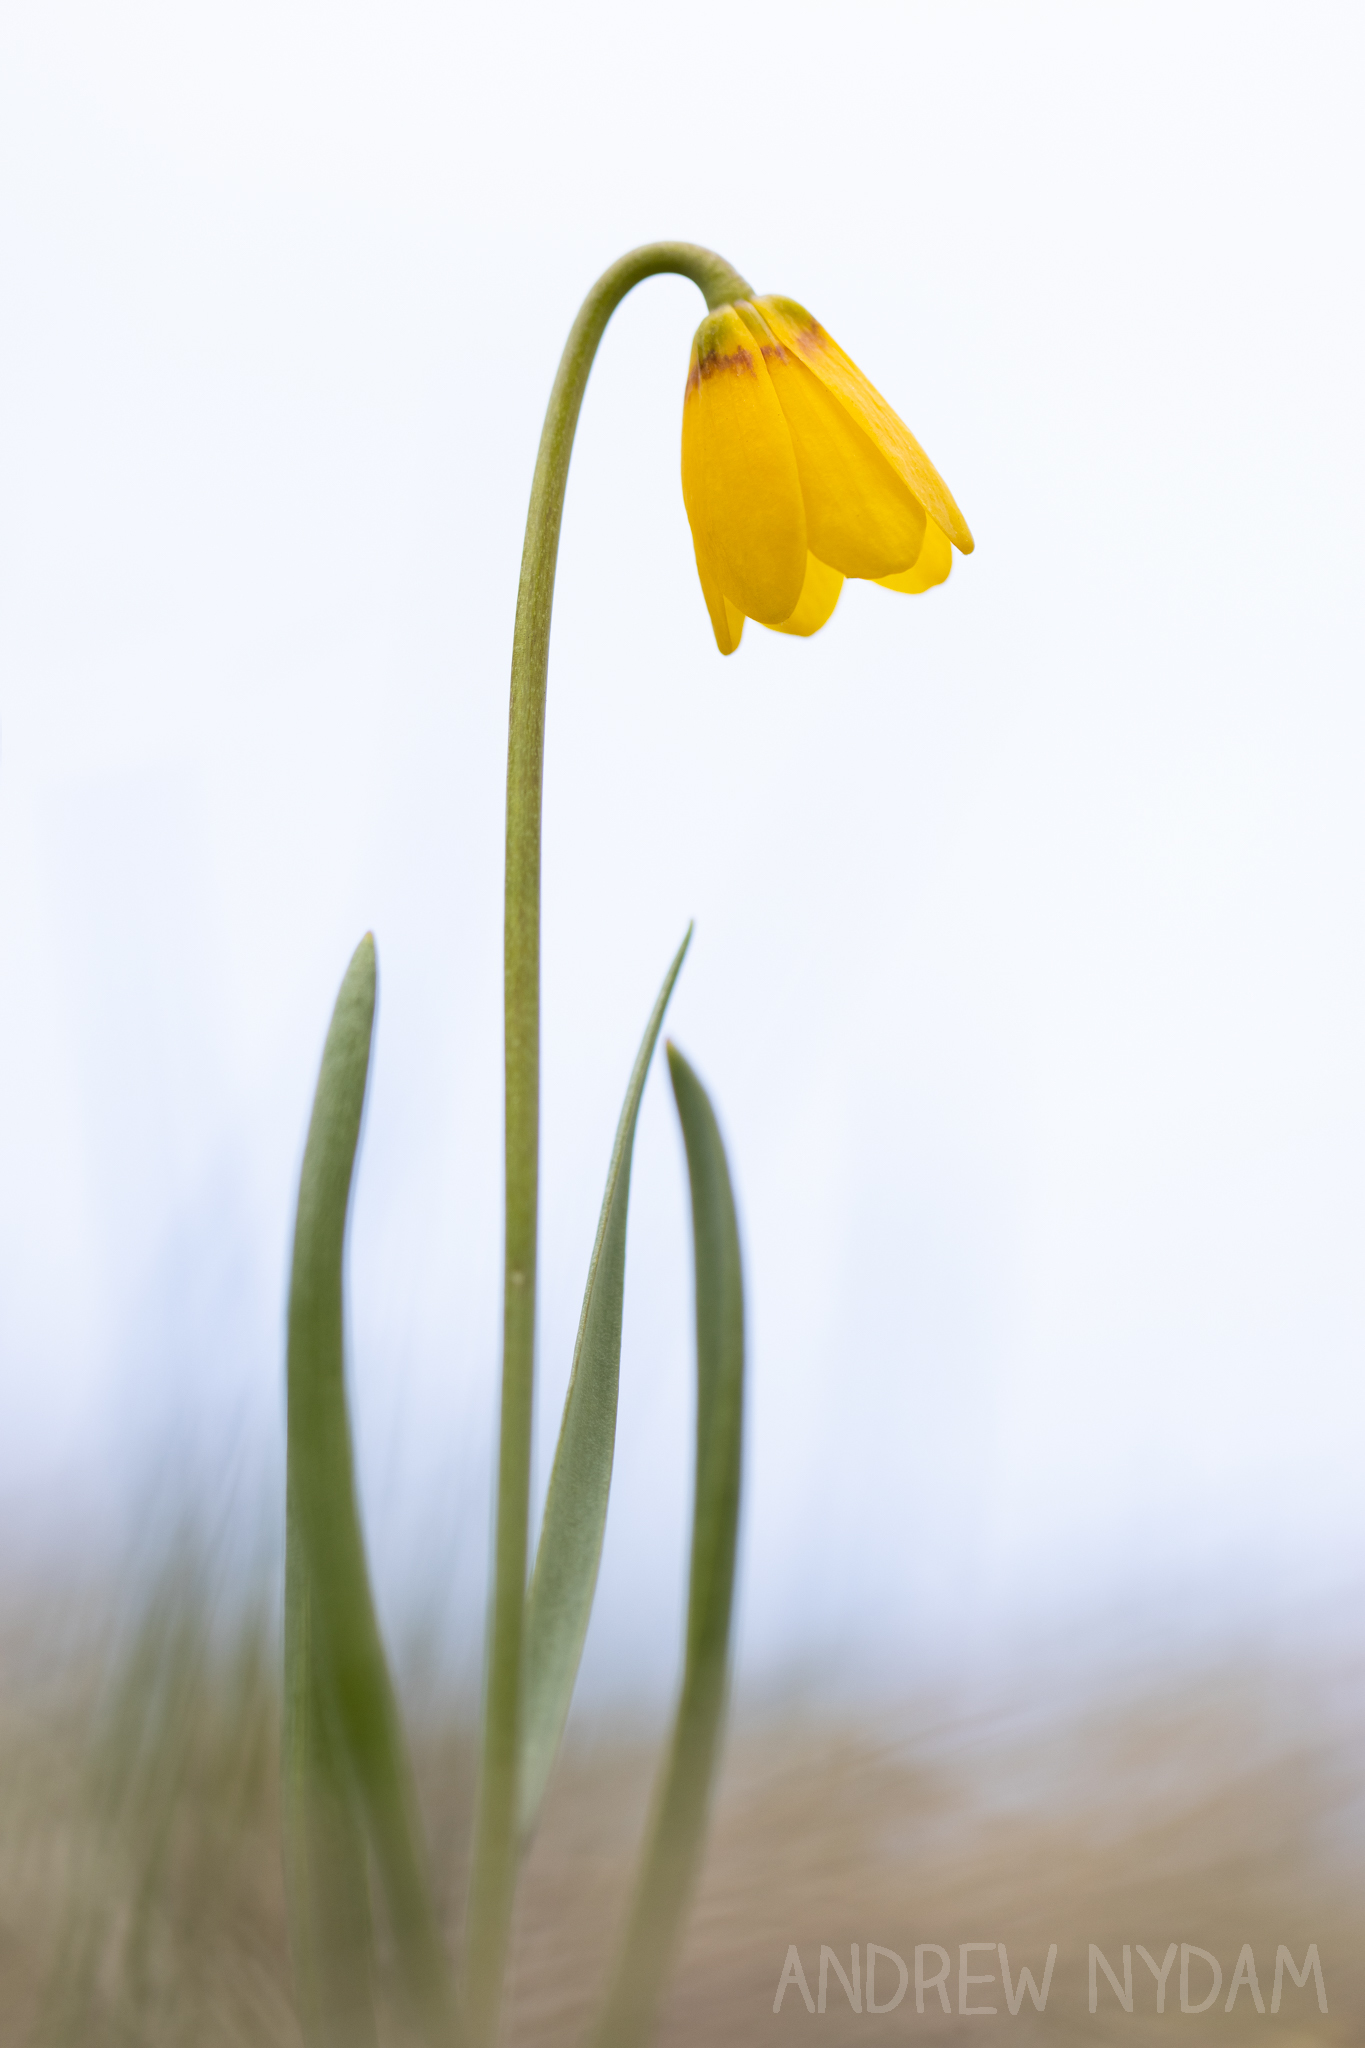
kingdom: Plantae
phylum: Tracheophyta
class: Liliopsida
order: Liliales
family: Liliaceae
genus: Fritillaria
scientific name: Fritillaria pudica
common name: Yellow fritillary
